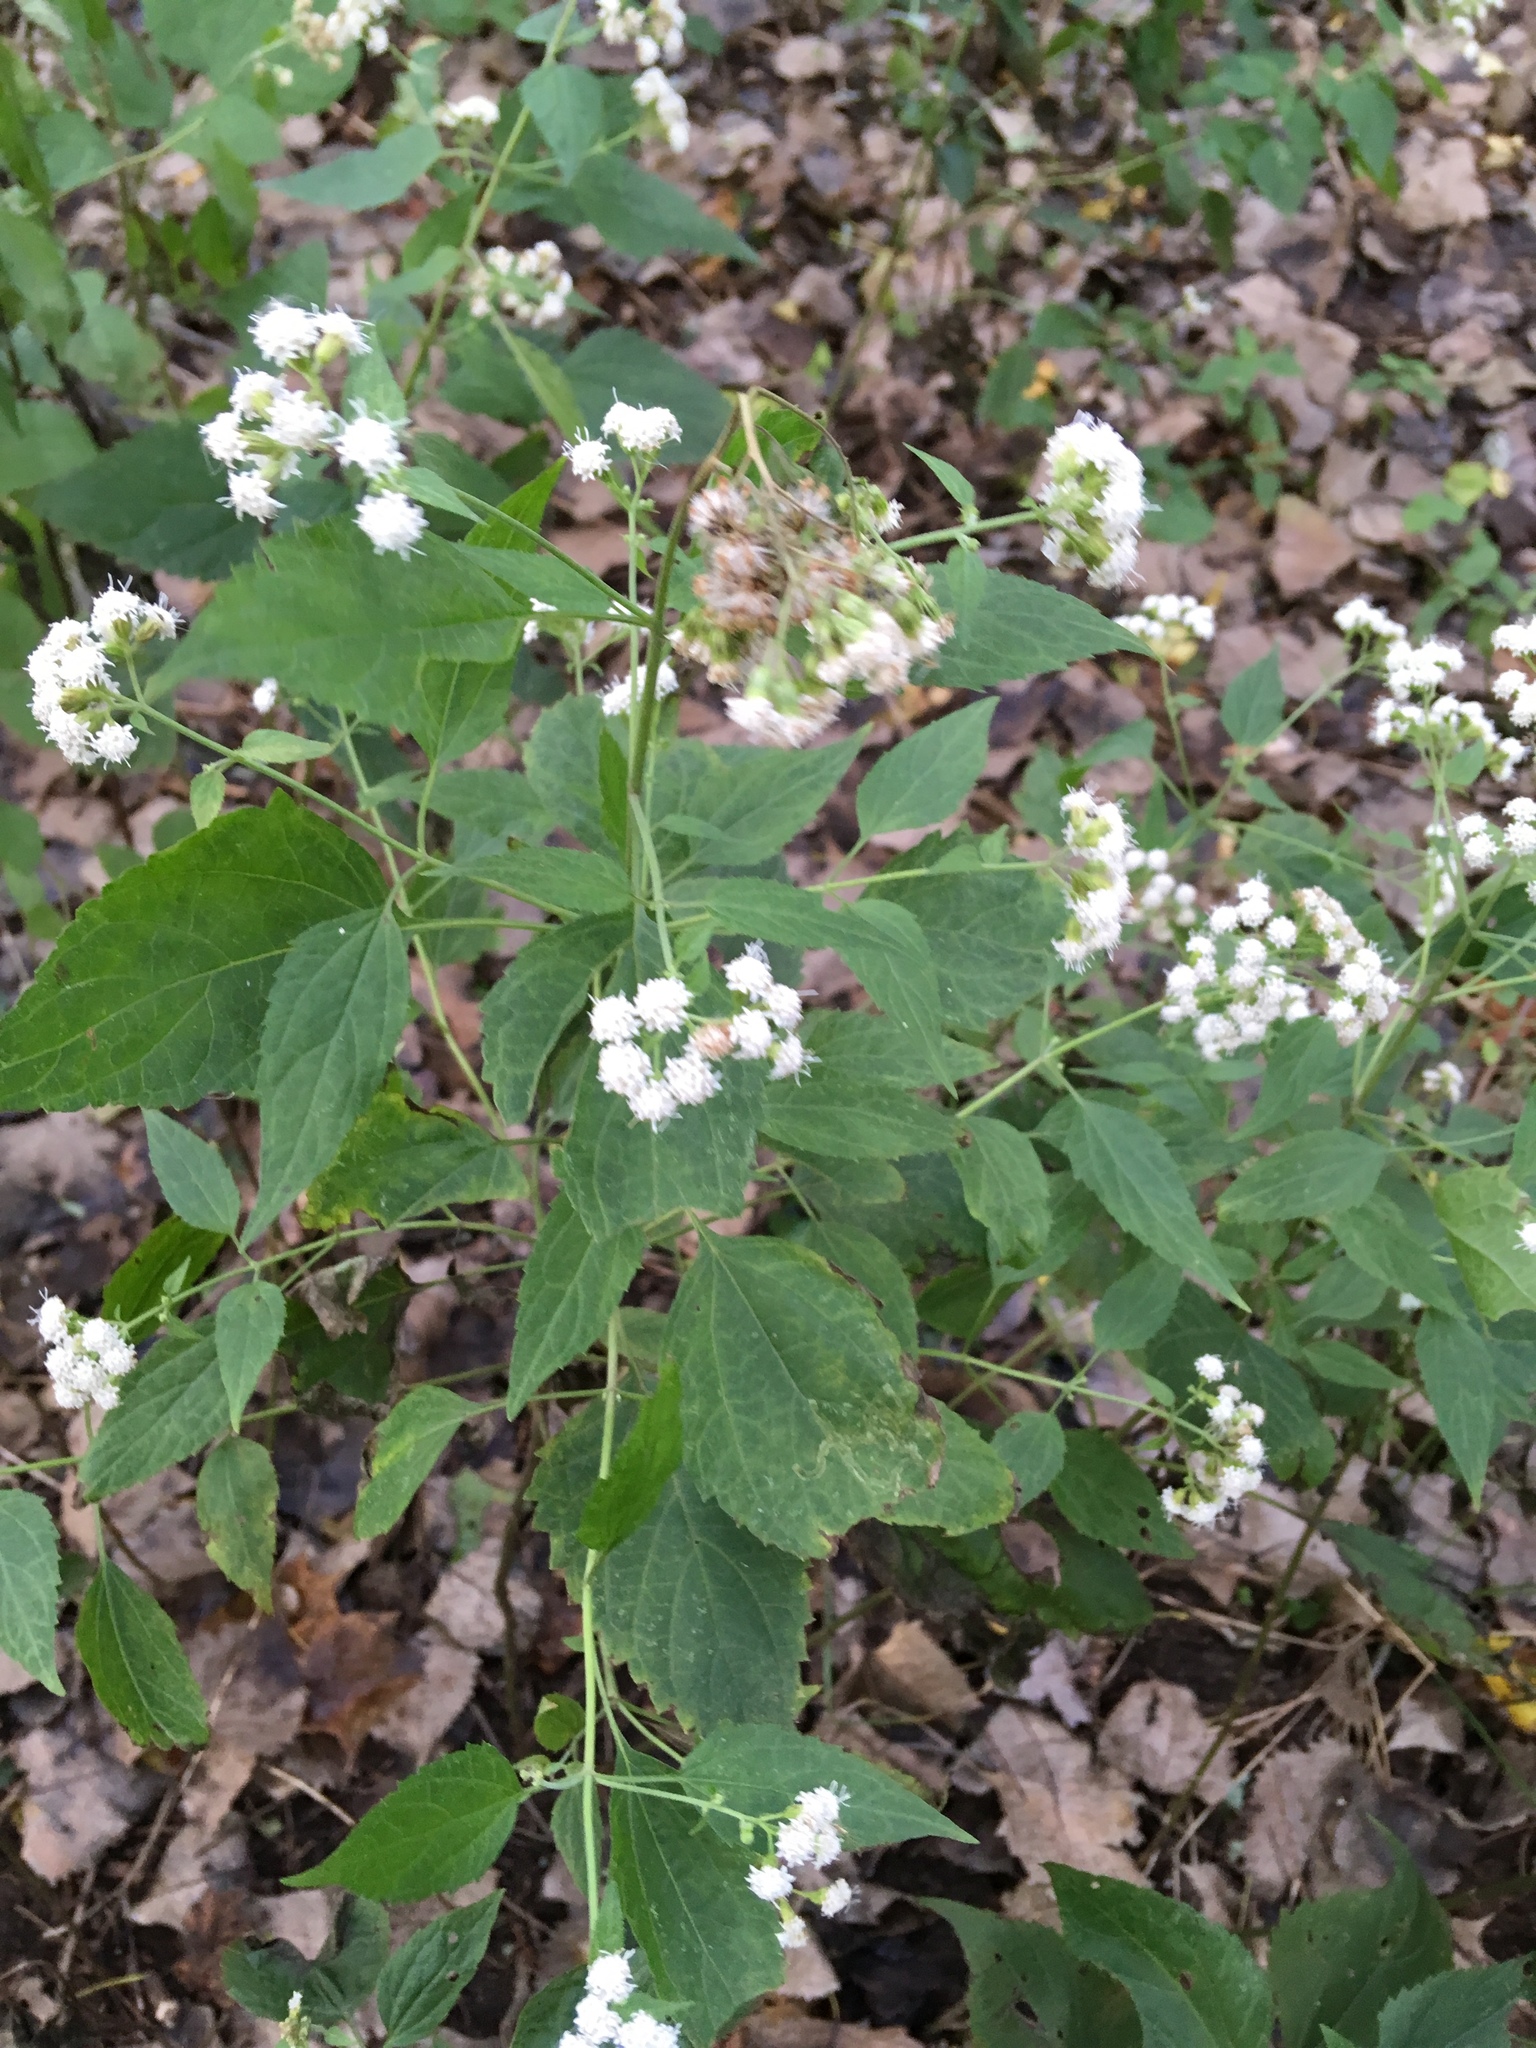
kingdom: Plantae
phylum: Tracheophyta
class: Magnoliopsida
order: Asterales
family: Asteraceae
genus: Ageratina
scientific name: Ageratina altissima
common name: White snakeroot
